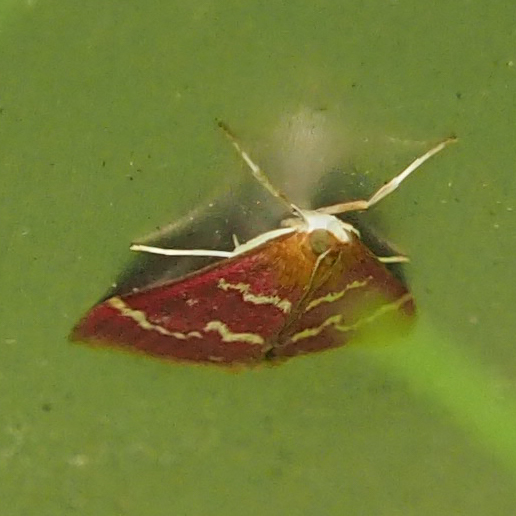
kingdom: Animalia
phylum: Arthropoda
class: Insecta
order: Lepidoptera
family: Crambidae
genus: Pyrausta
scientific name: Pyrausta signatalis
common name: Raspberry pyrausta moth
